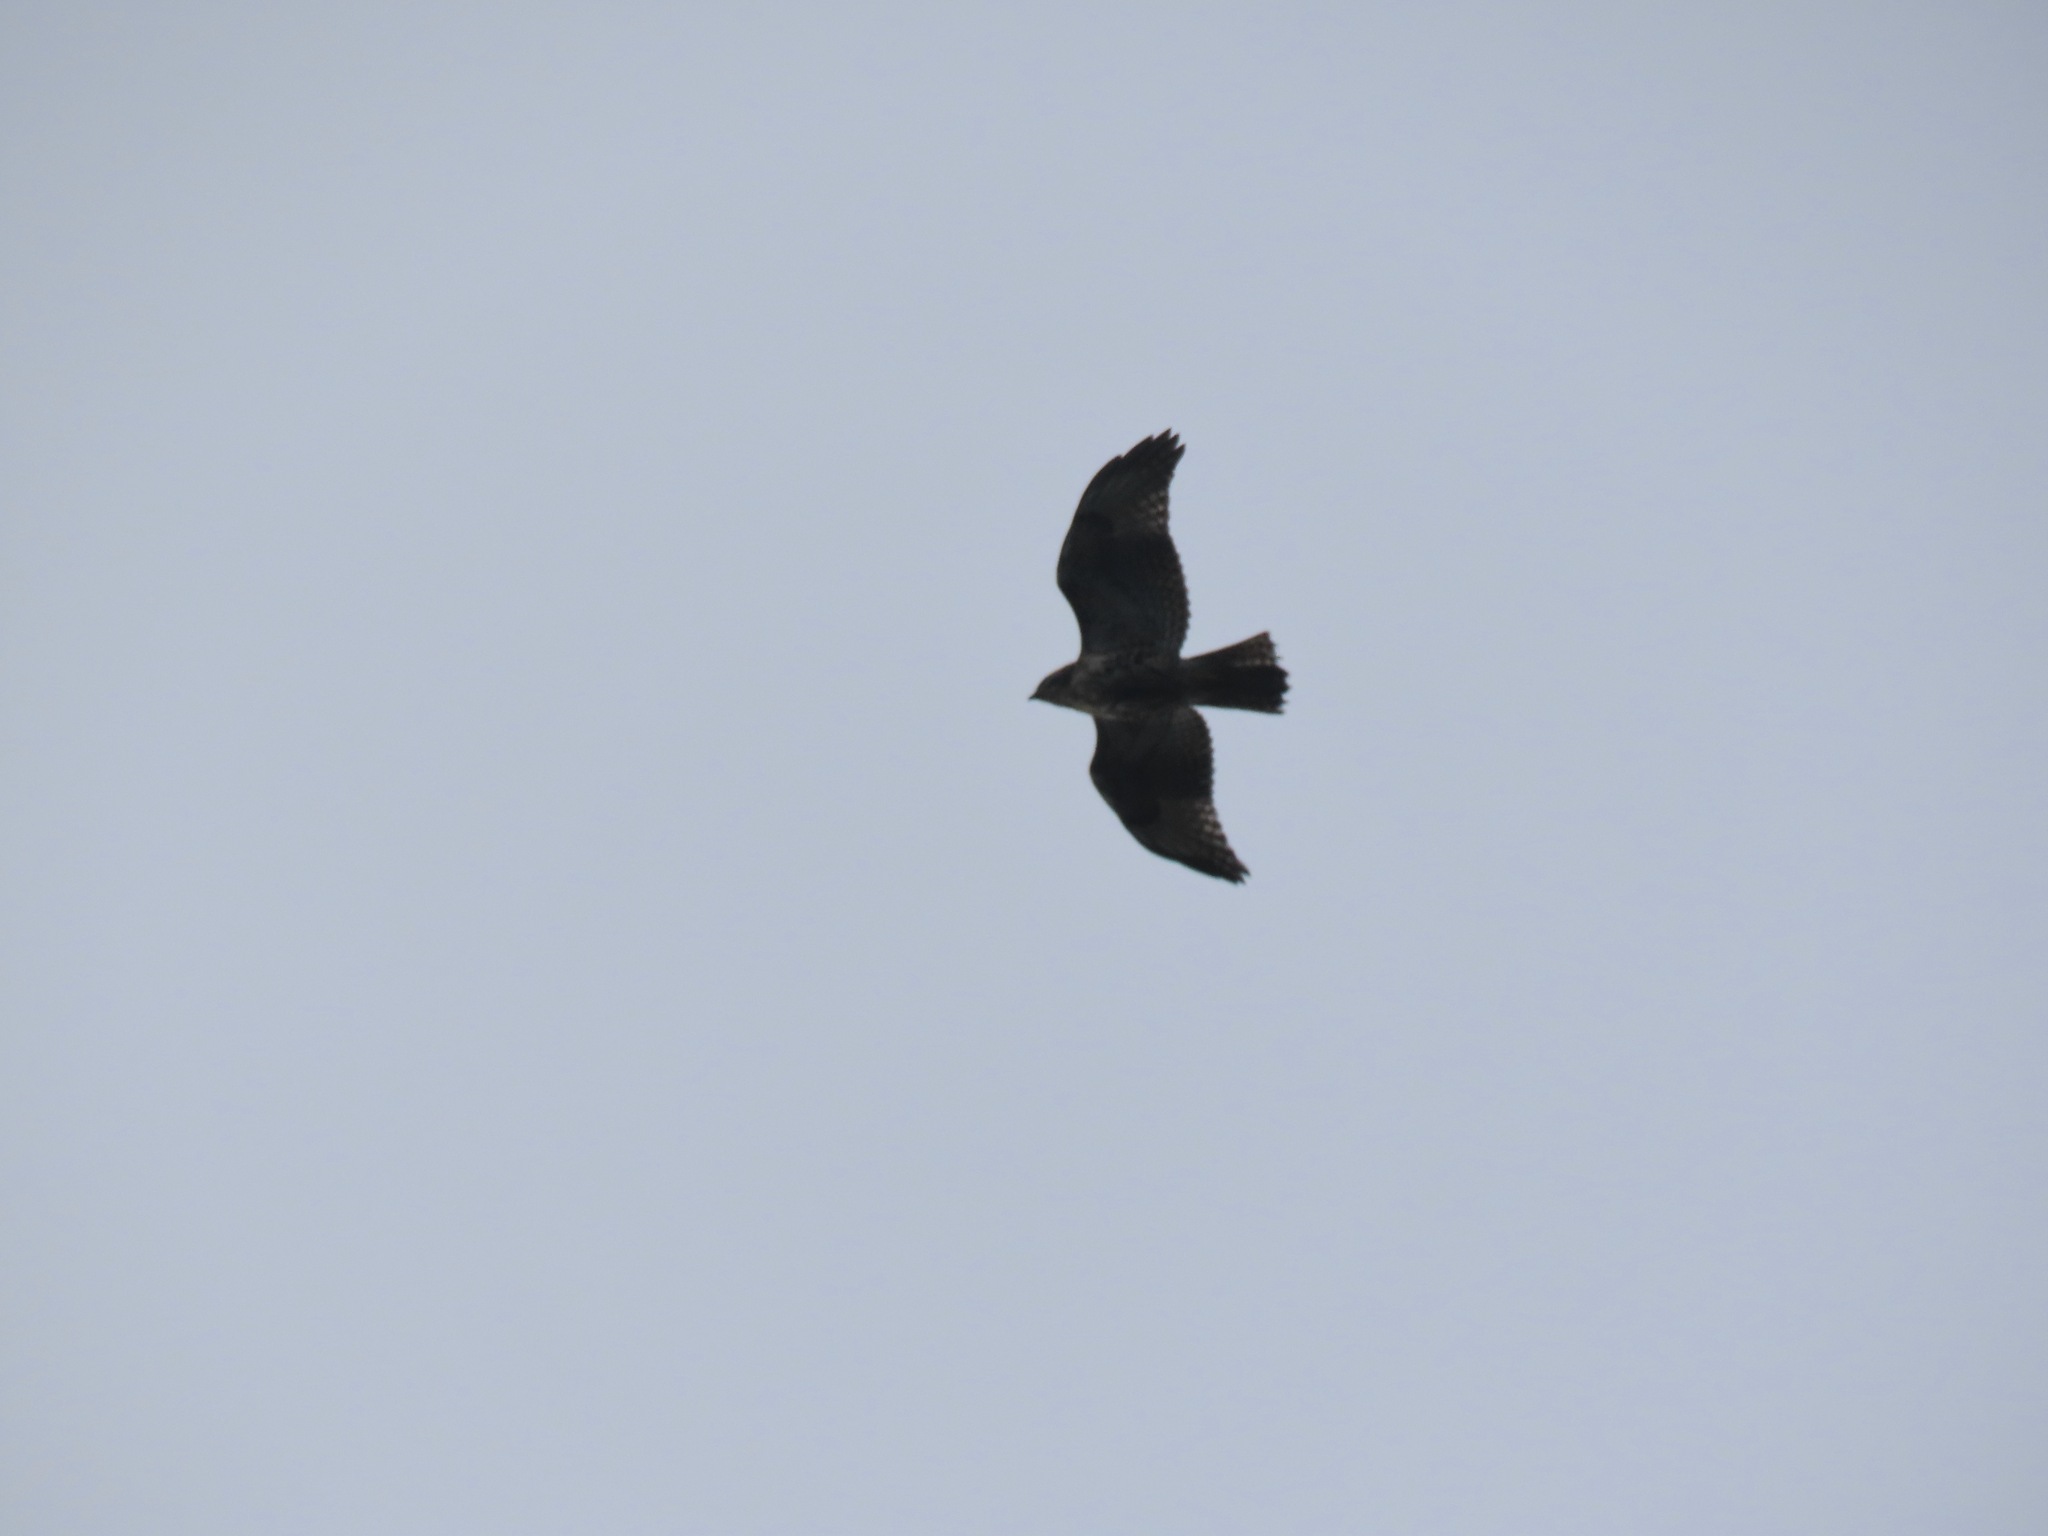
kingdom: Animalia
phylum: Chordata
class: Aves
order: Accipitriformes
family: Accipitridae
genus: Buteo
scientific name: Buteo jamaicensis
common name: Red-tailed hawk
